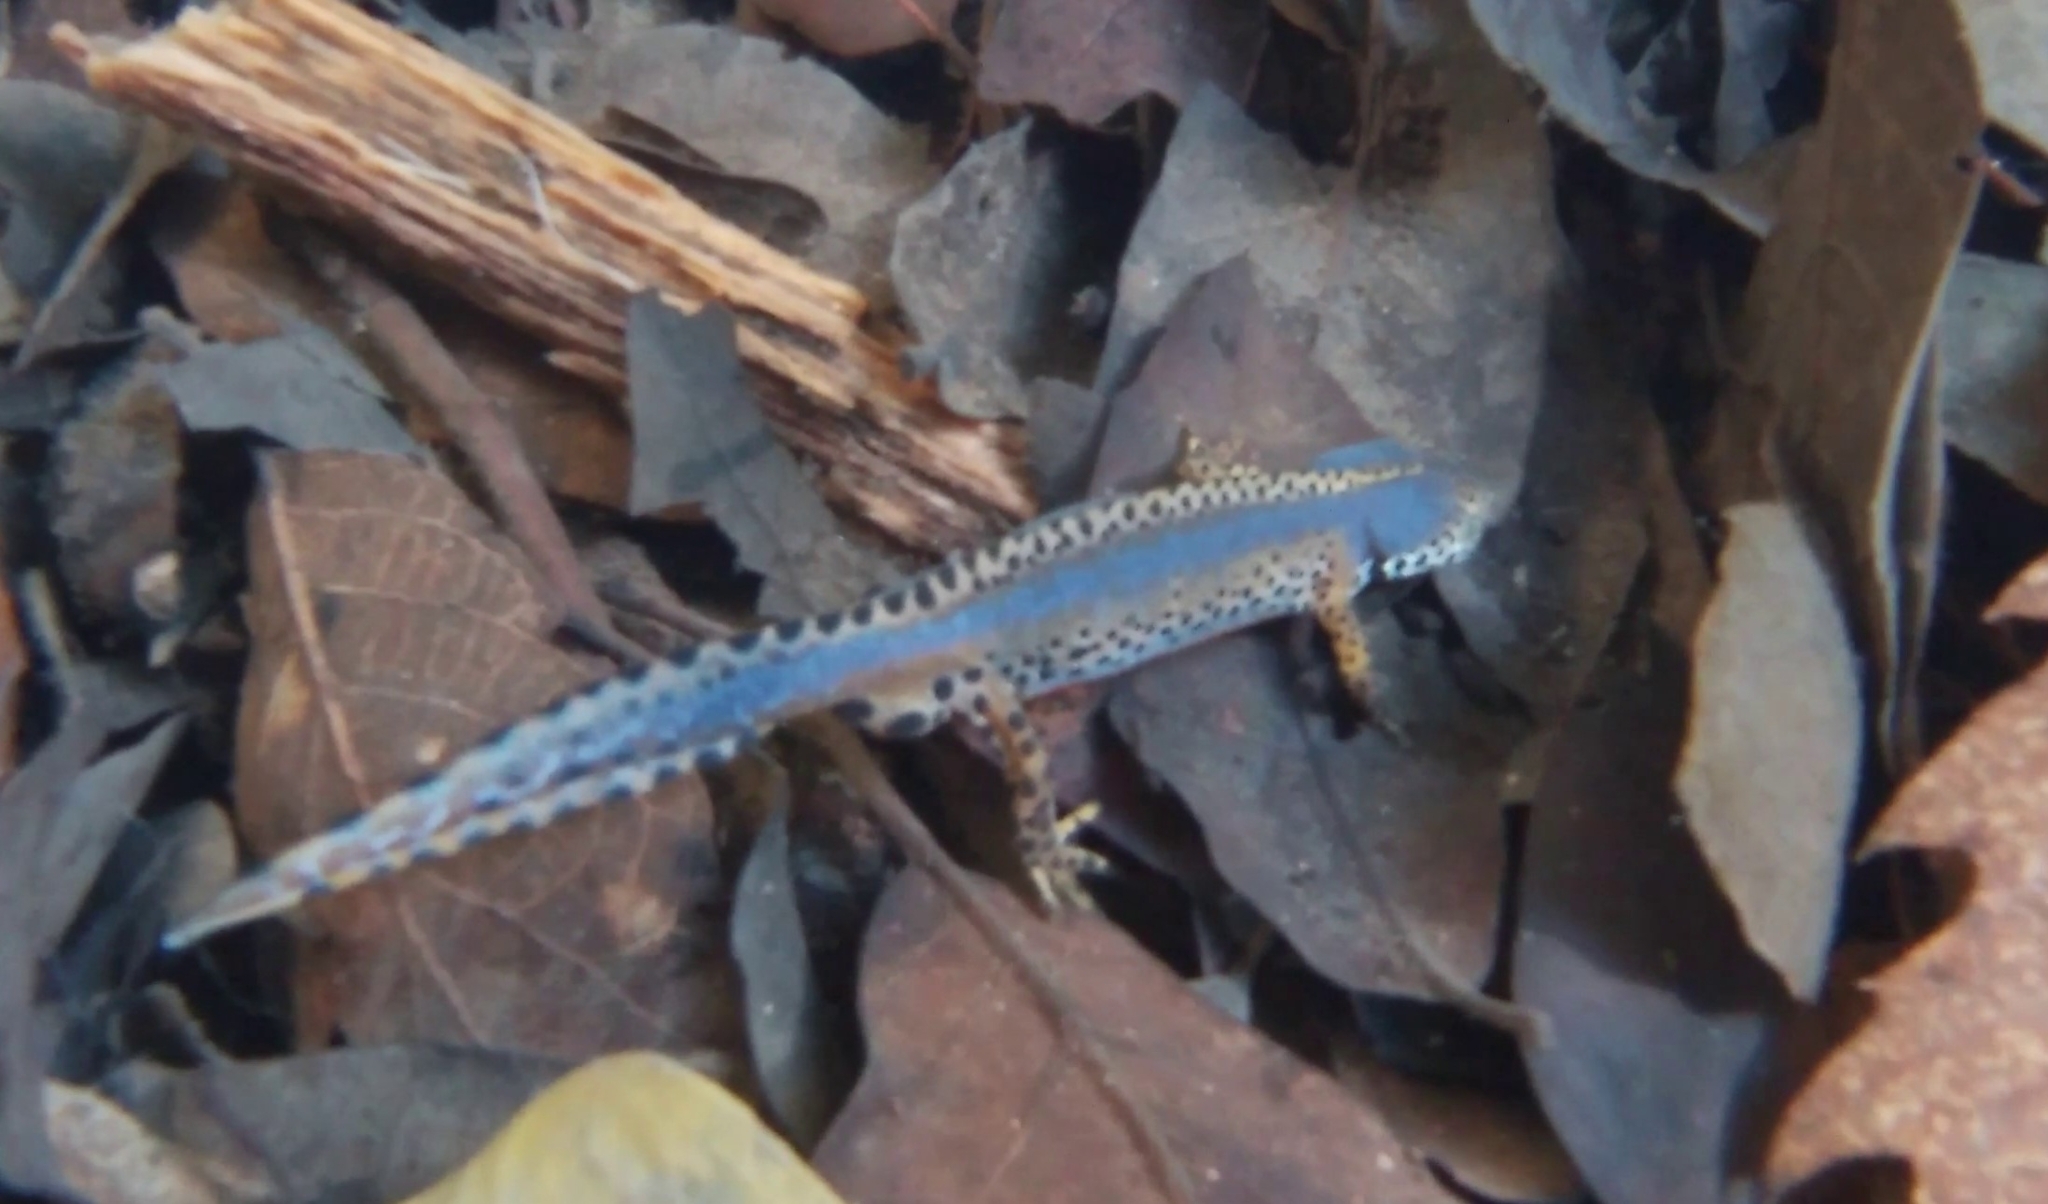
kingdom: Animalia
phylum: Chordata
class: Amphibia
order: Caudata
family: Salamandridae
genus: Ichthyosaura
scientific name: Ichthyosaura alpestris
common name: Alpine newt
